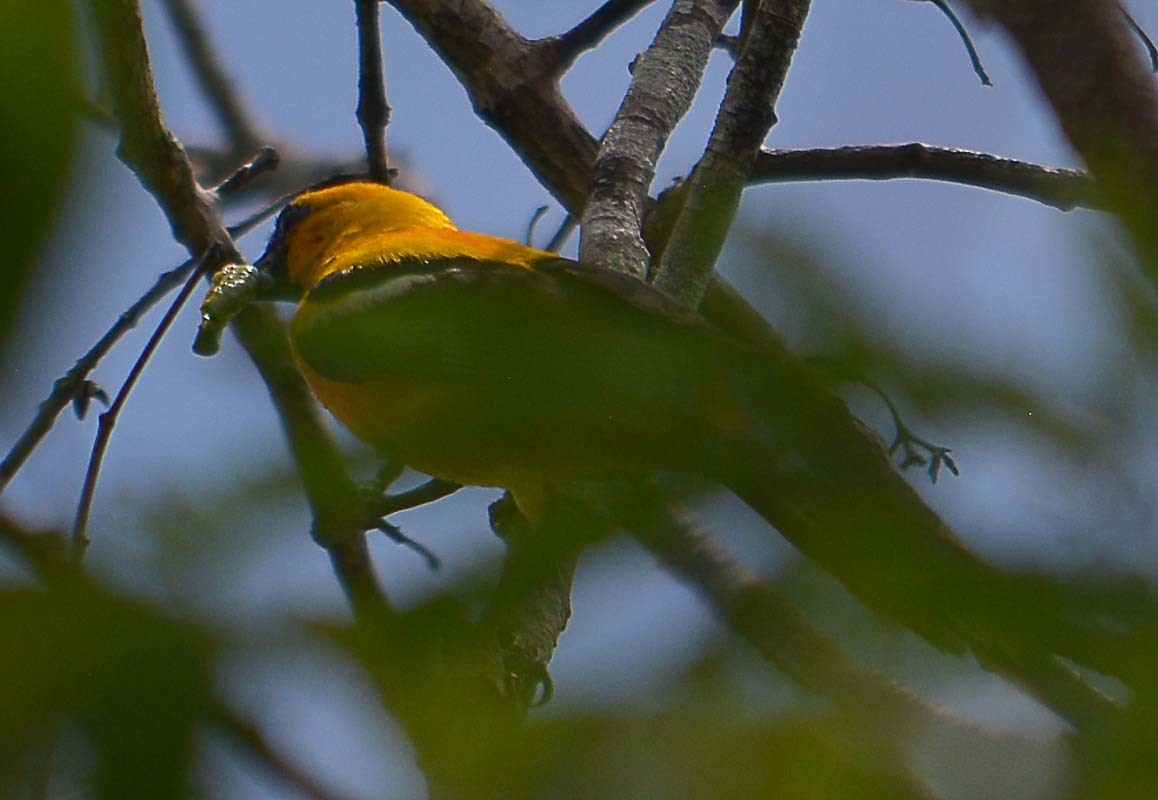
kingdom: Animalia
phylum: Chordata
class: Aves
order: Passeriformes
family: Icteridae
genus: Icterus
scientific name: Icterus auratus
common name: Orange oriole
